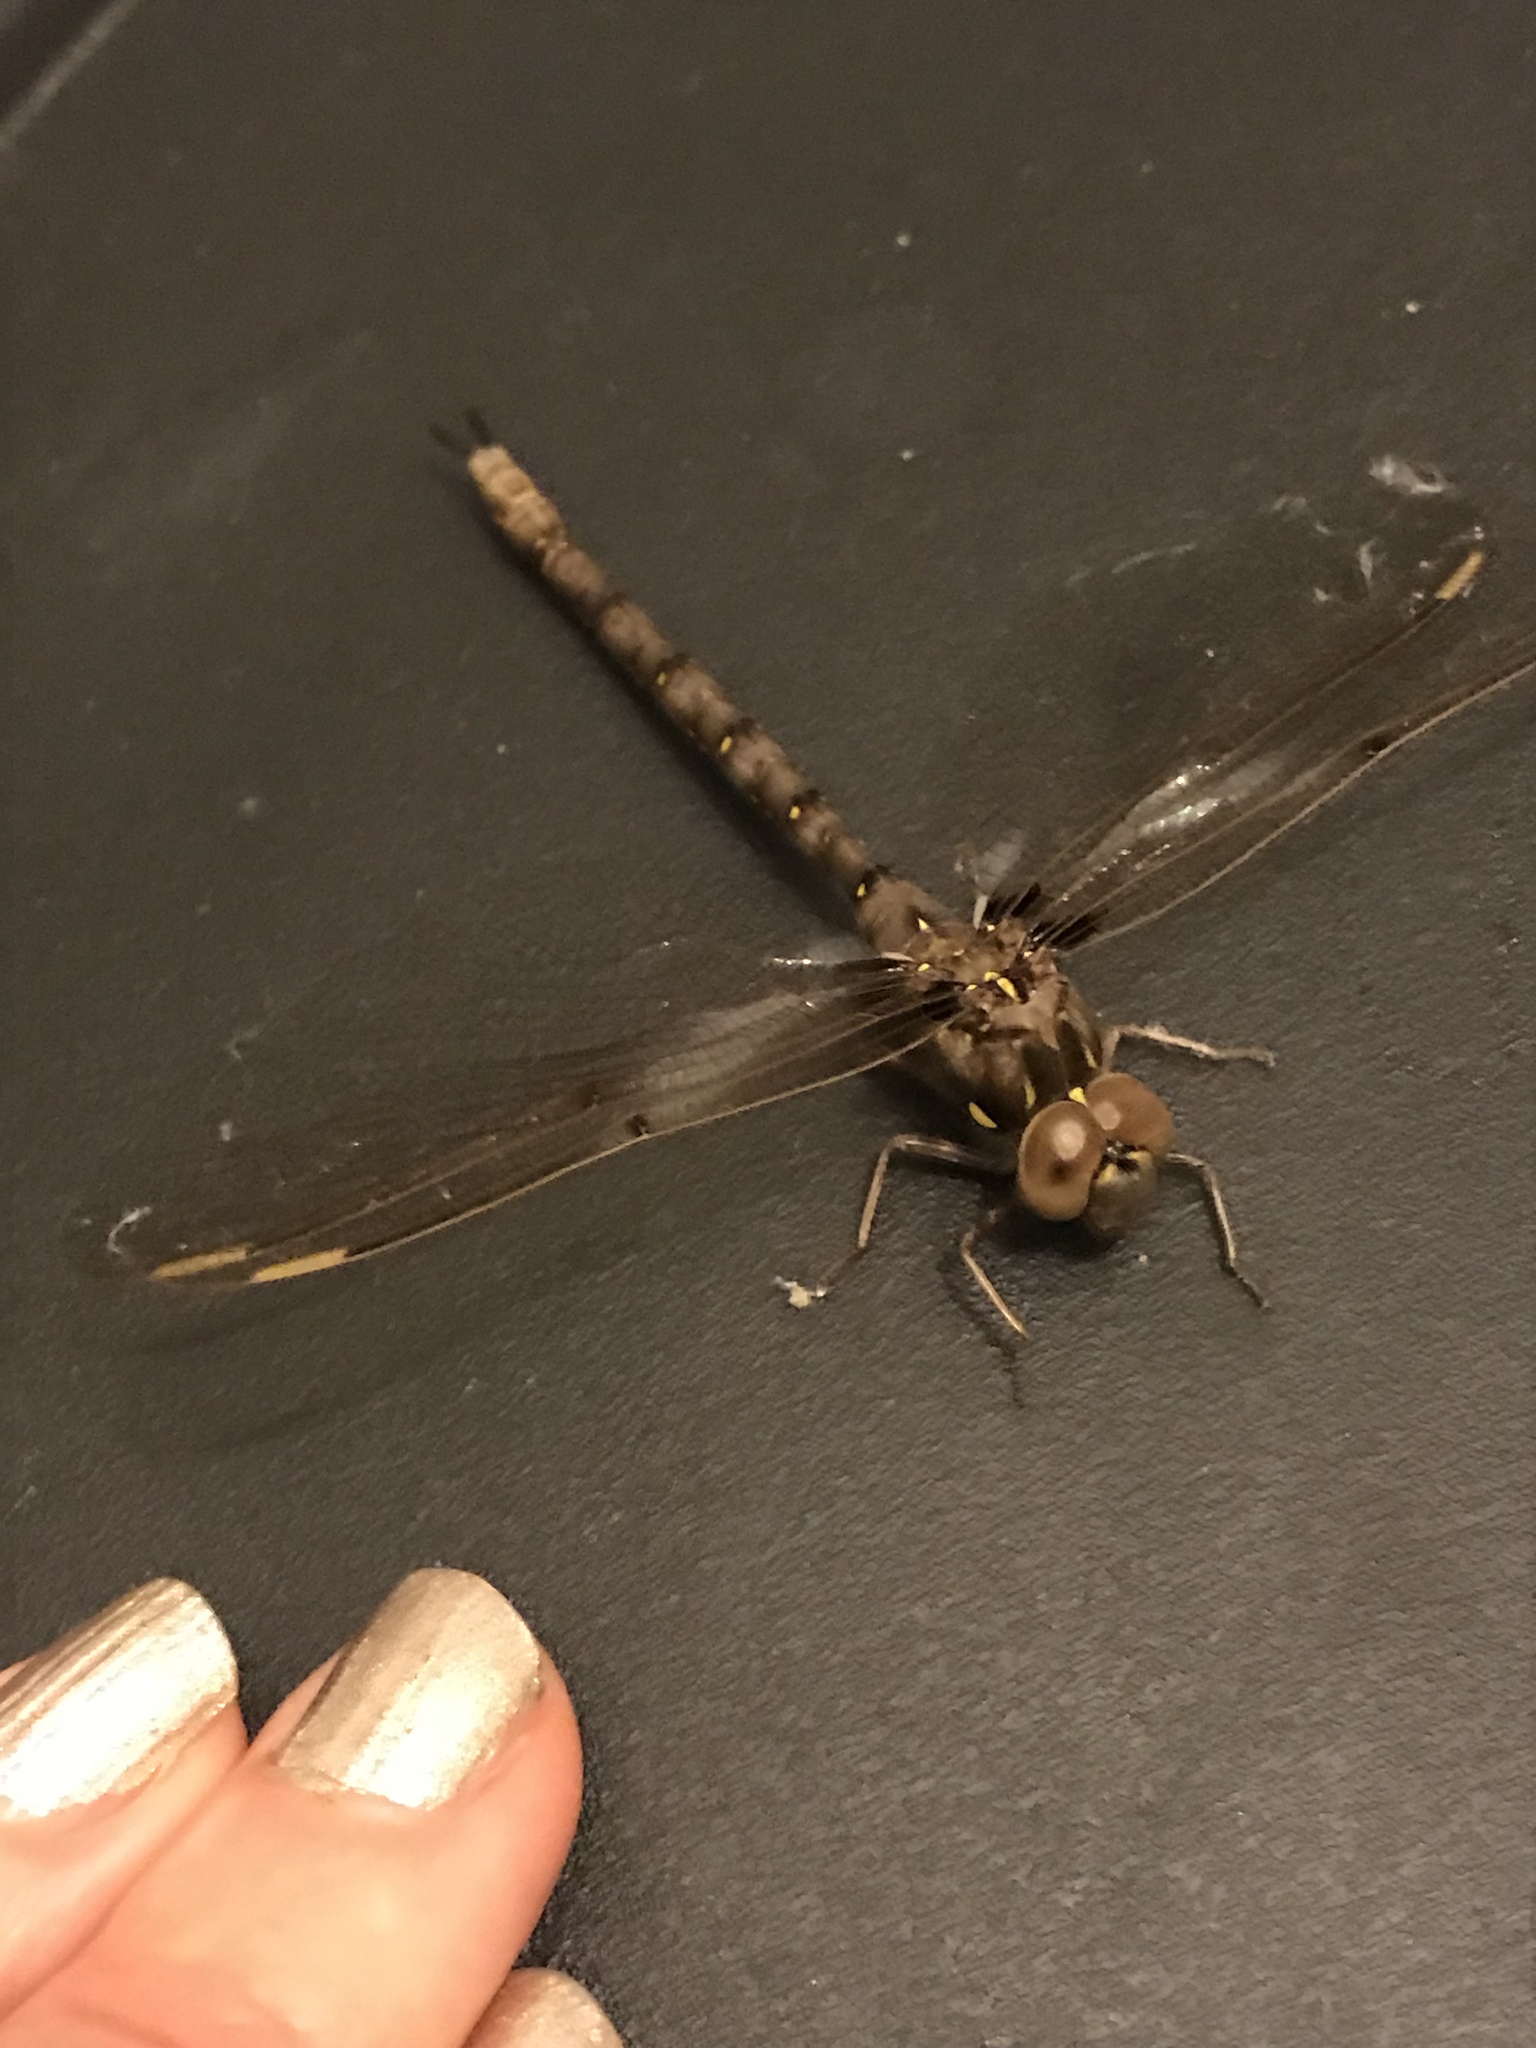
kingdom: Animalia
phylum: Arthropoda
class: Insecta
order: Odonata
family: Aeshnidae
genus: Boyeria
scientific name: Boyeria vinosa
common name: Fawn darner
